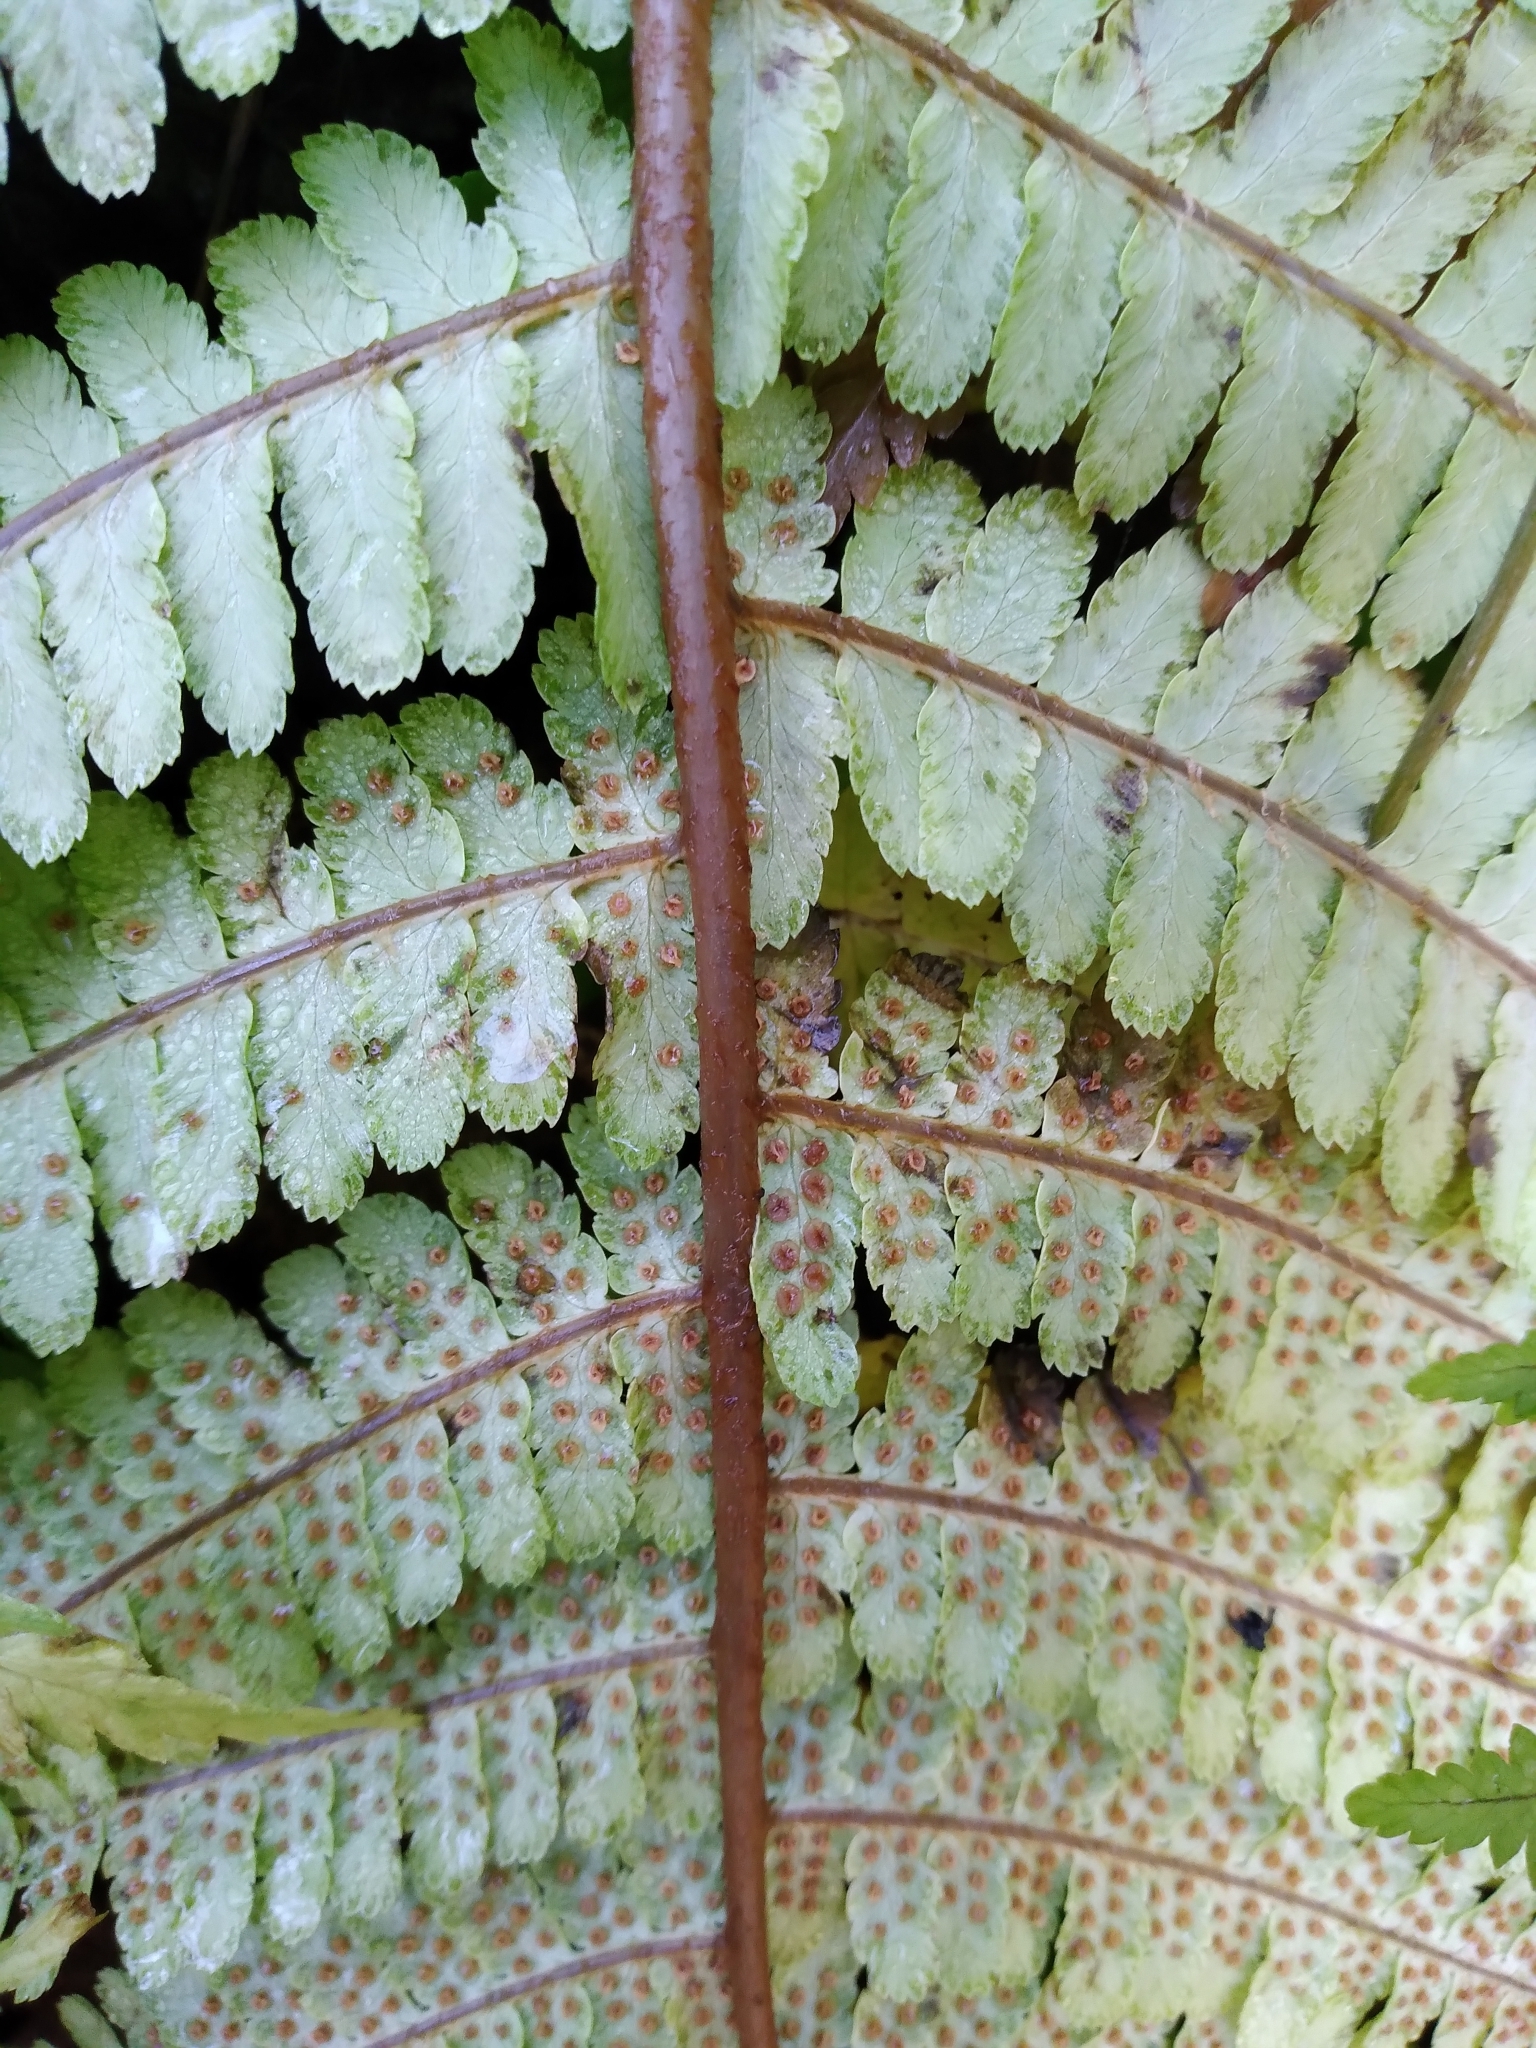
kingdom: Plantae
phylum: Tracheophyta
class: Polypodiopsida
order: Polypodiales
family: Dryopteridaceae
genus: Dryopteris
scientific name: Dryopteris filix-mas
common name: Male fern
